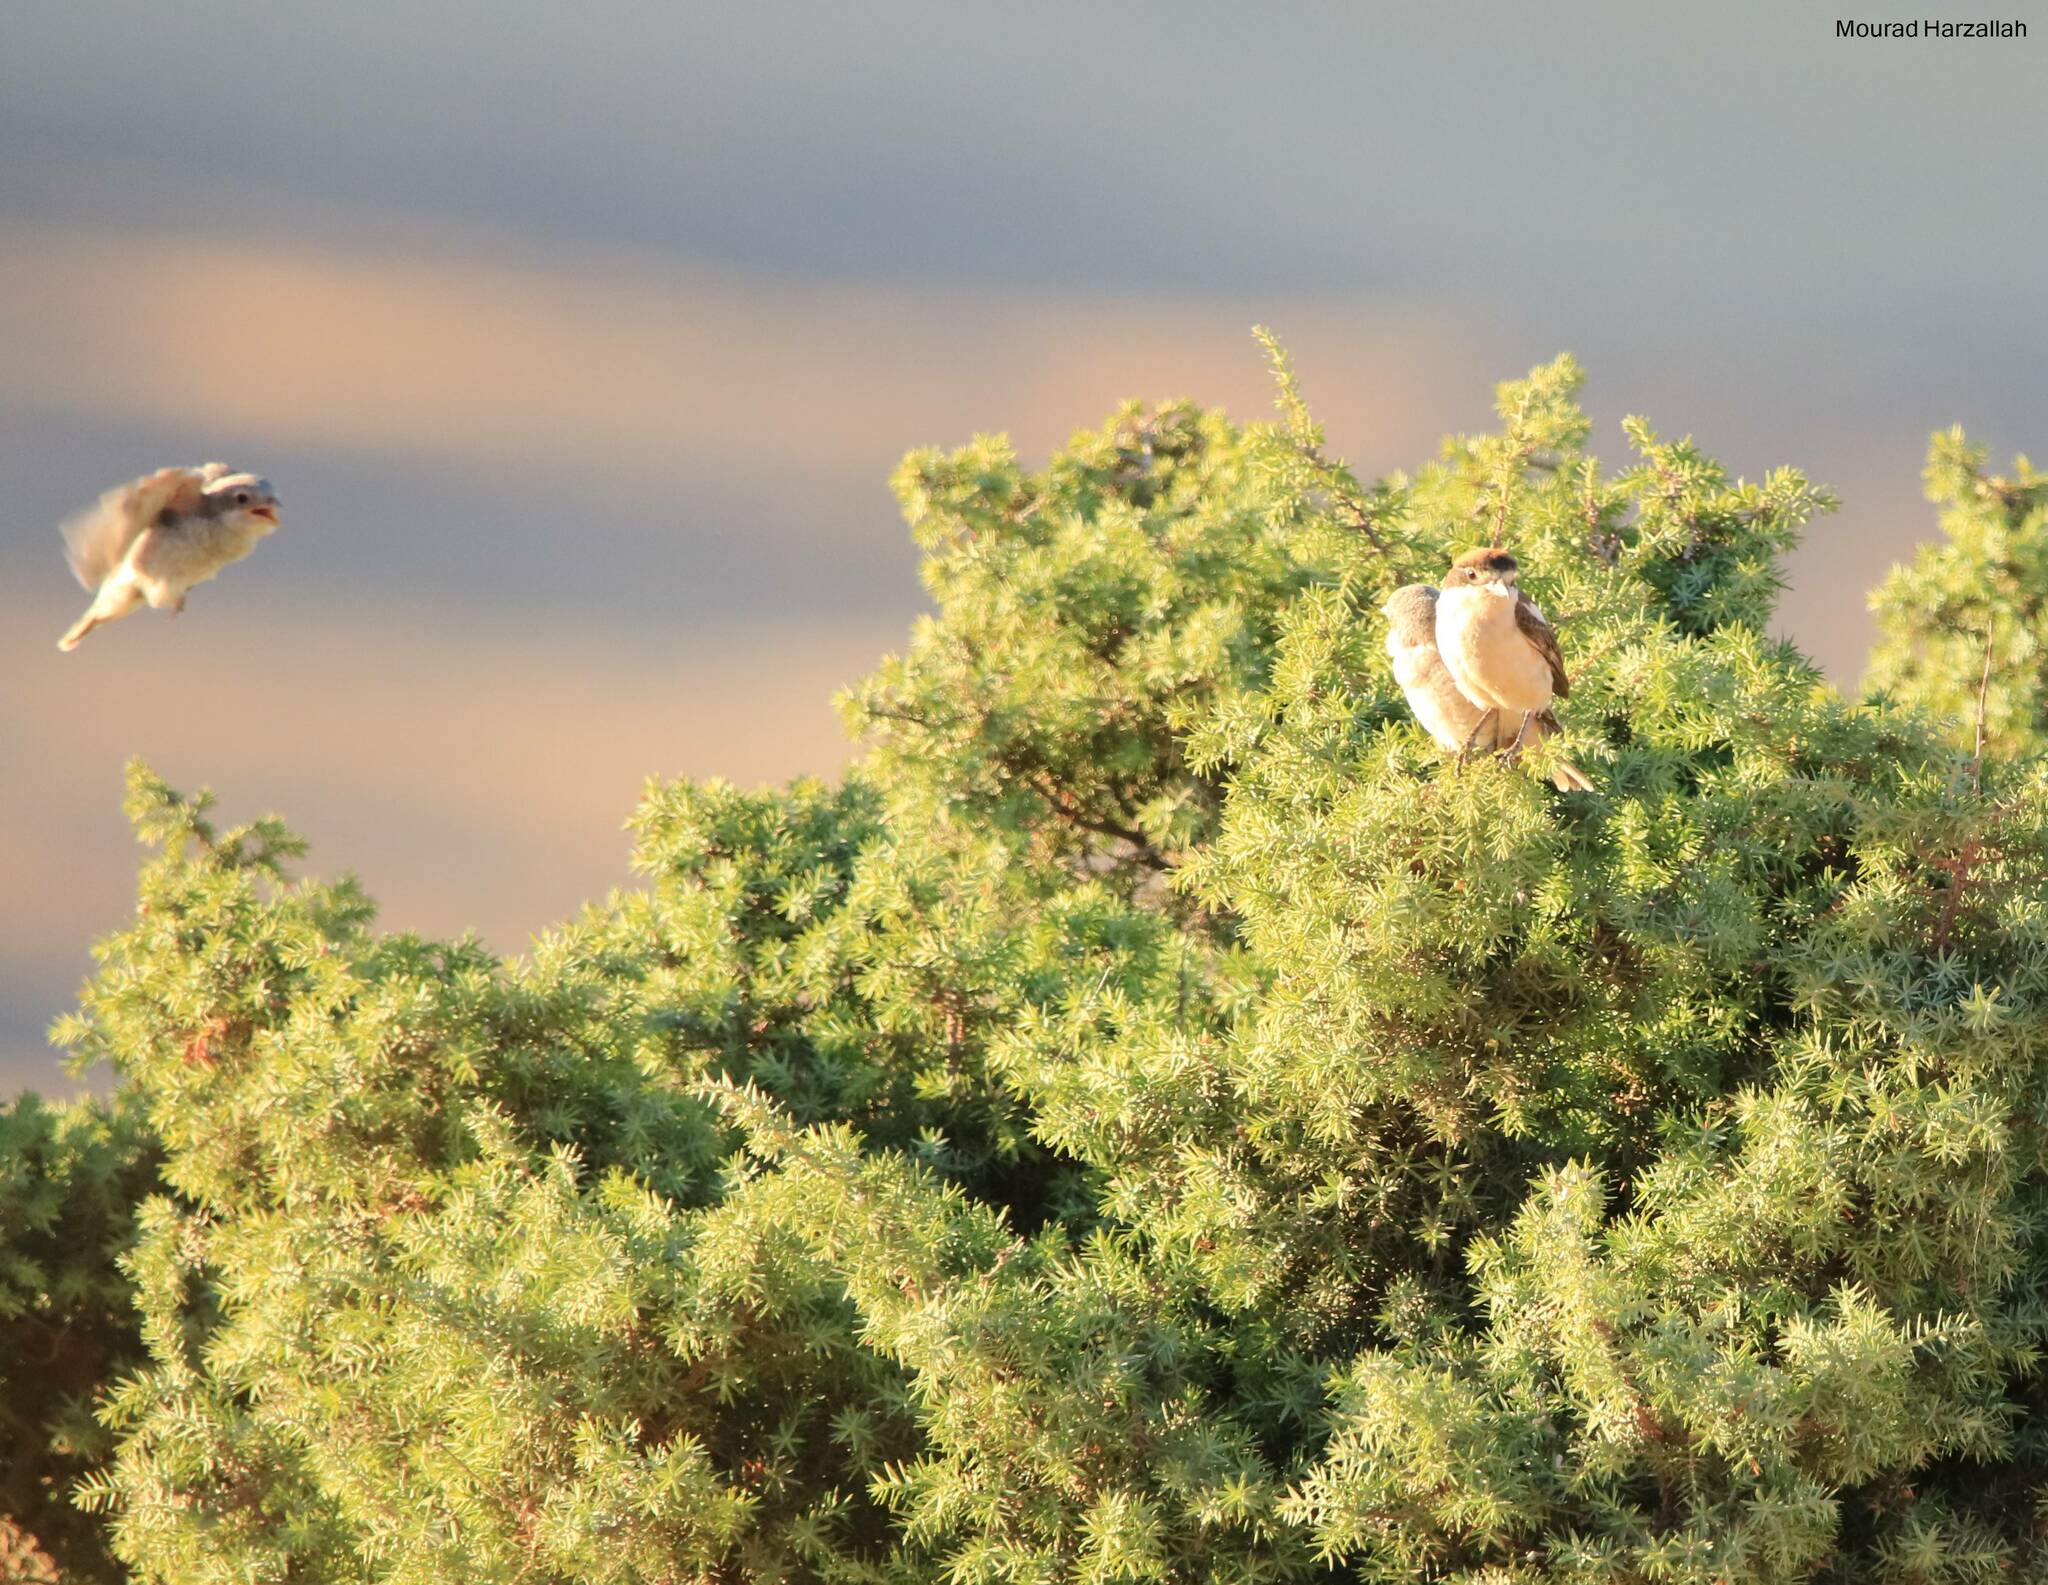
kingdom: Animalia
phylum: Chordata
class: Aves
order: Passeriformes
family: Laniidae
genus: Lanius
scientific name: Lanius senator
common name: Woodchat shrike
